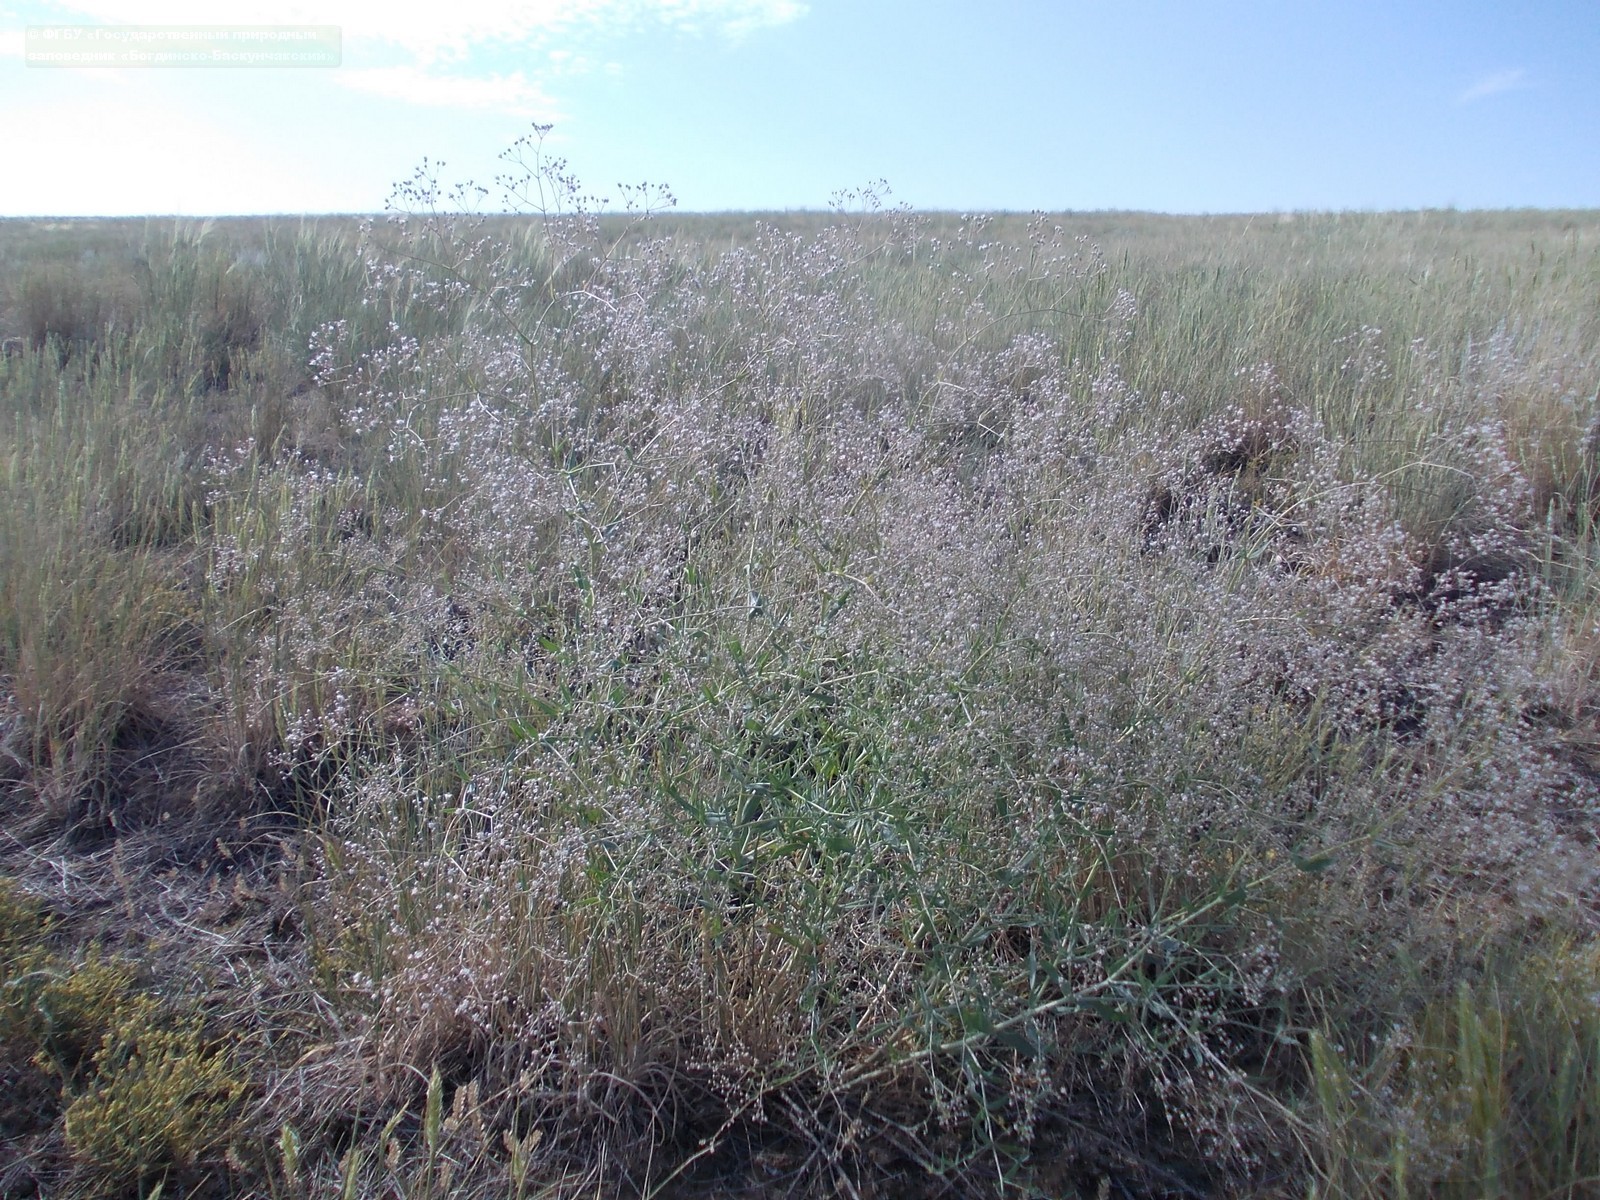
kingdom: Plantae
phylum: Tracheophyta
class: Magnoliopsida
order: Caryophyllales
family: Caryophyllaceae
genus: Gypsophila
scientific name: Gypsophila paniculata
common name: Baby's-breath
